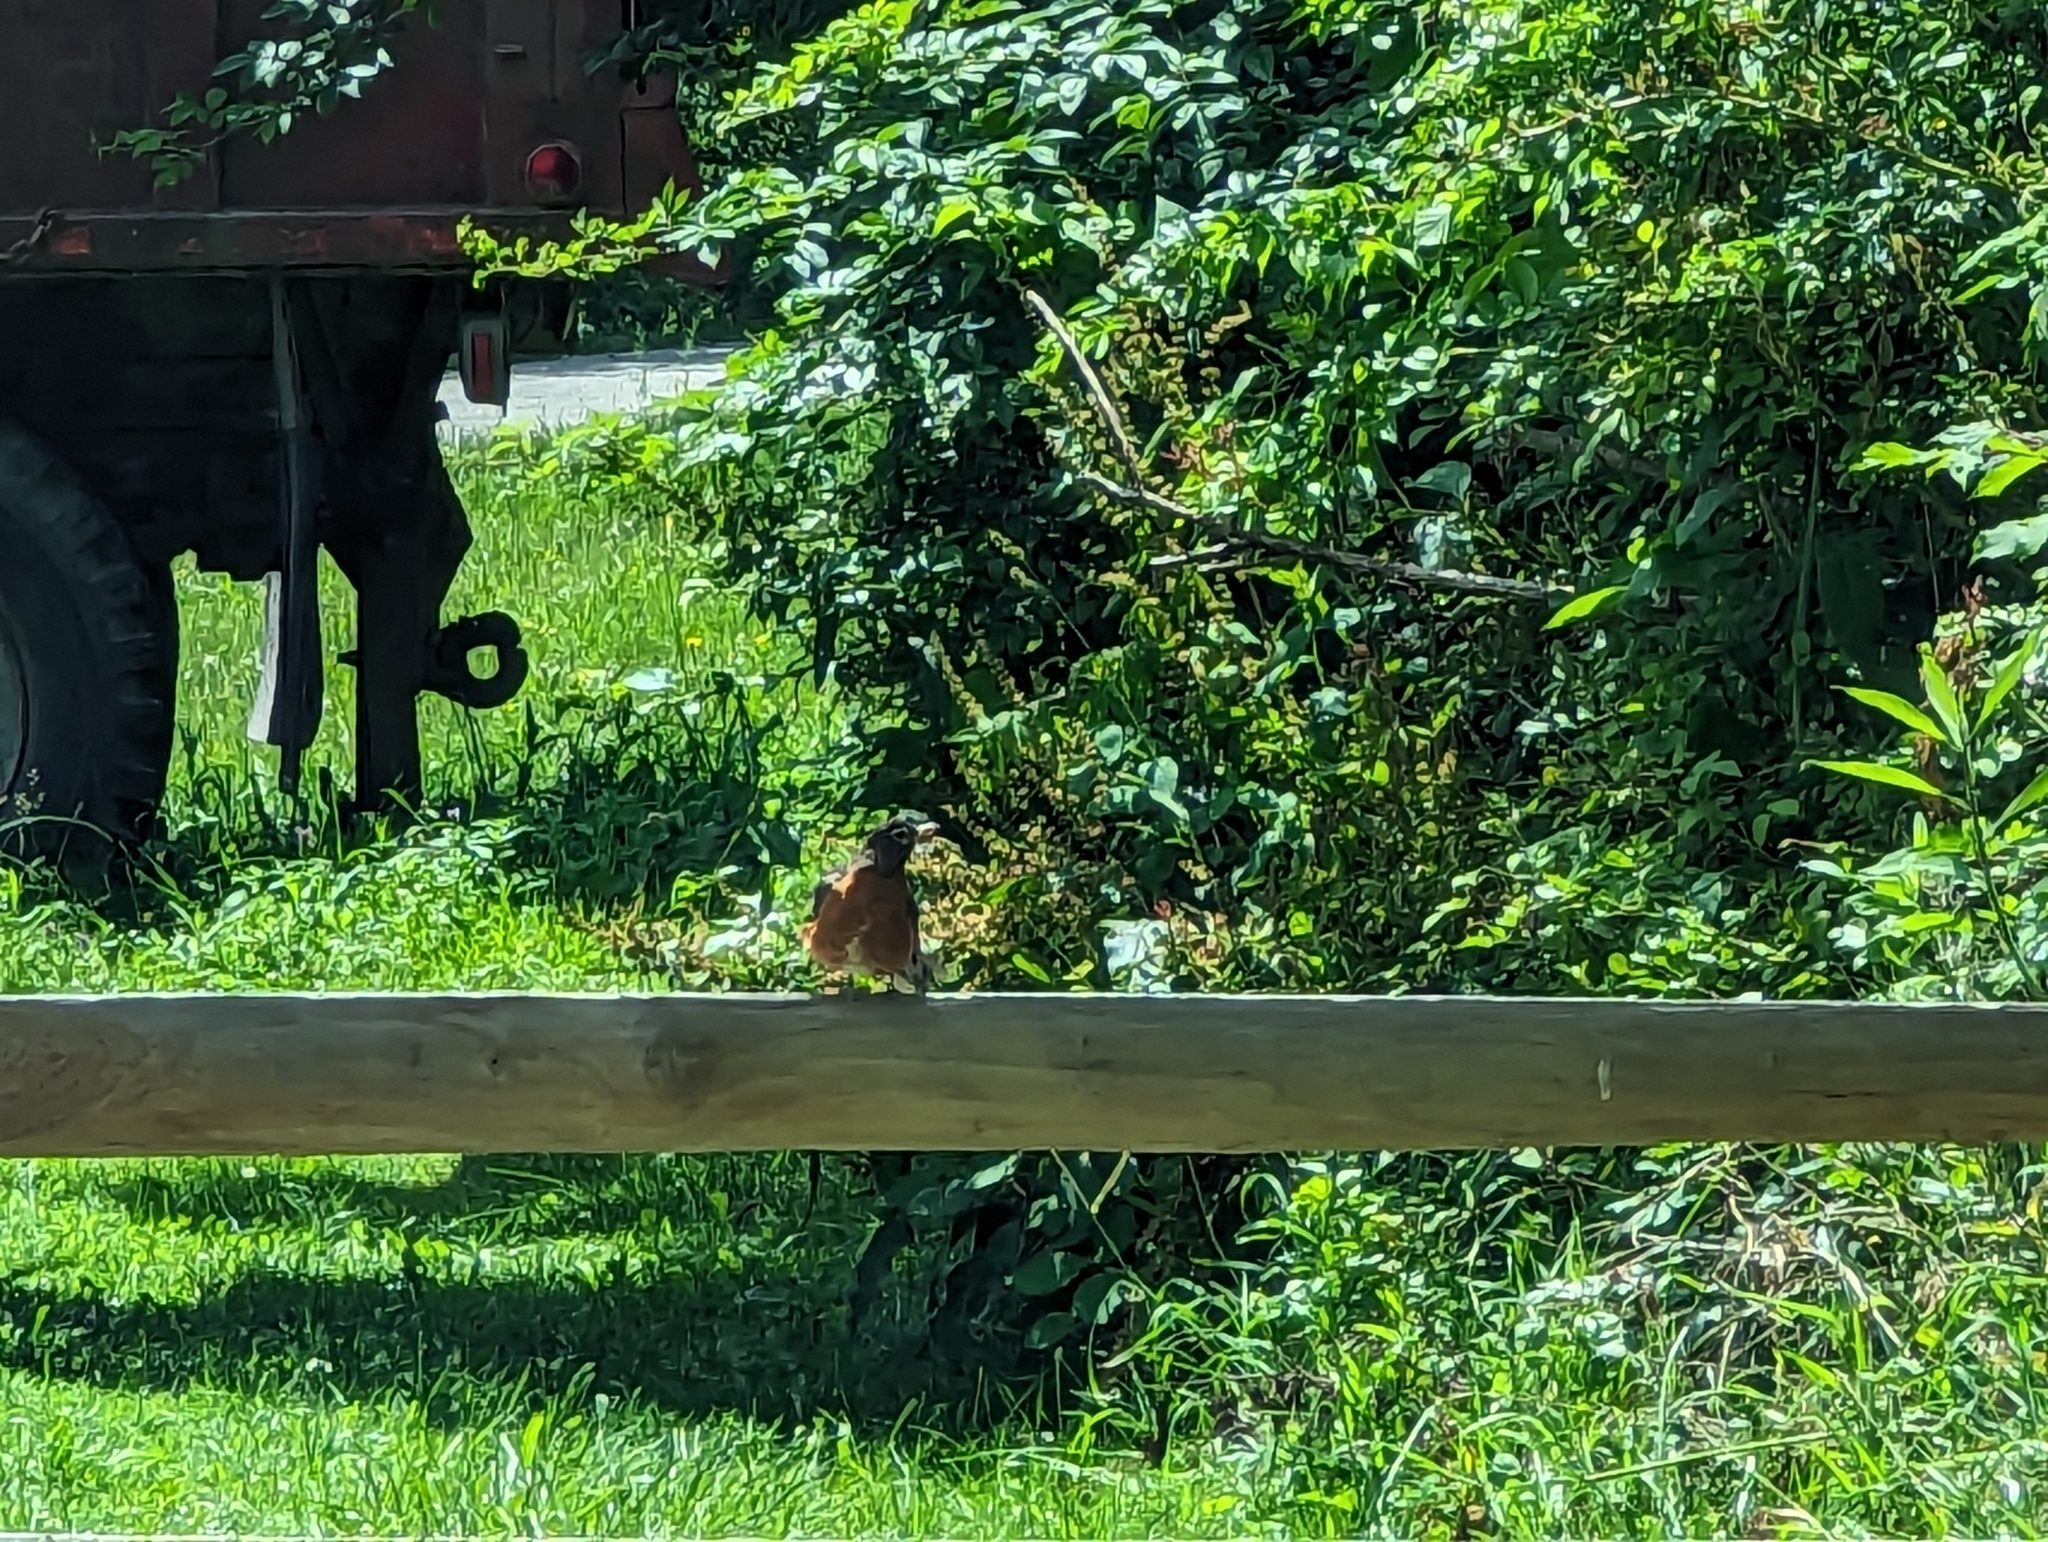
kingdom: Animalia
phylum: Chordata
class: Aves
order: Passeriformes
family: Turdidae
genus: Turdus
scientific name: Turdus migratorius
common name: American robin
